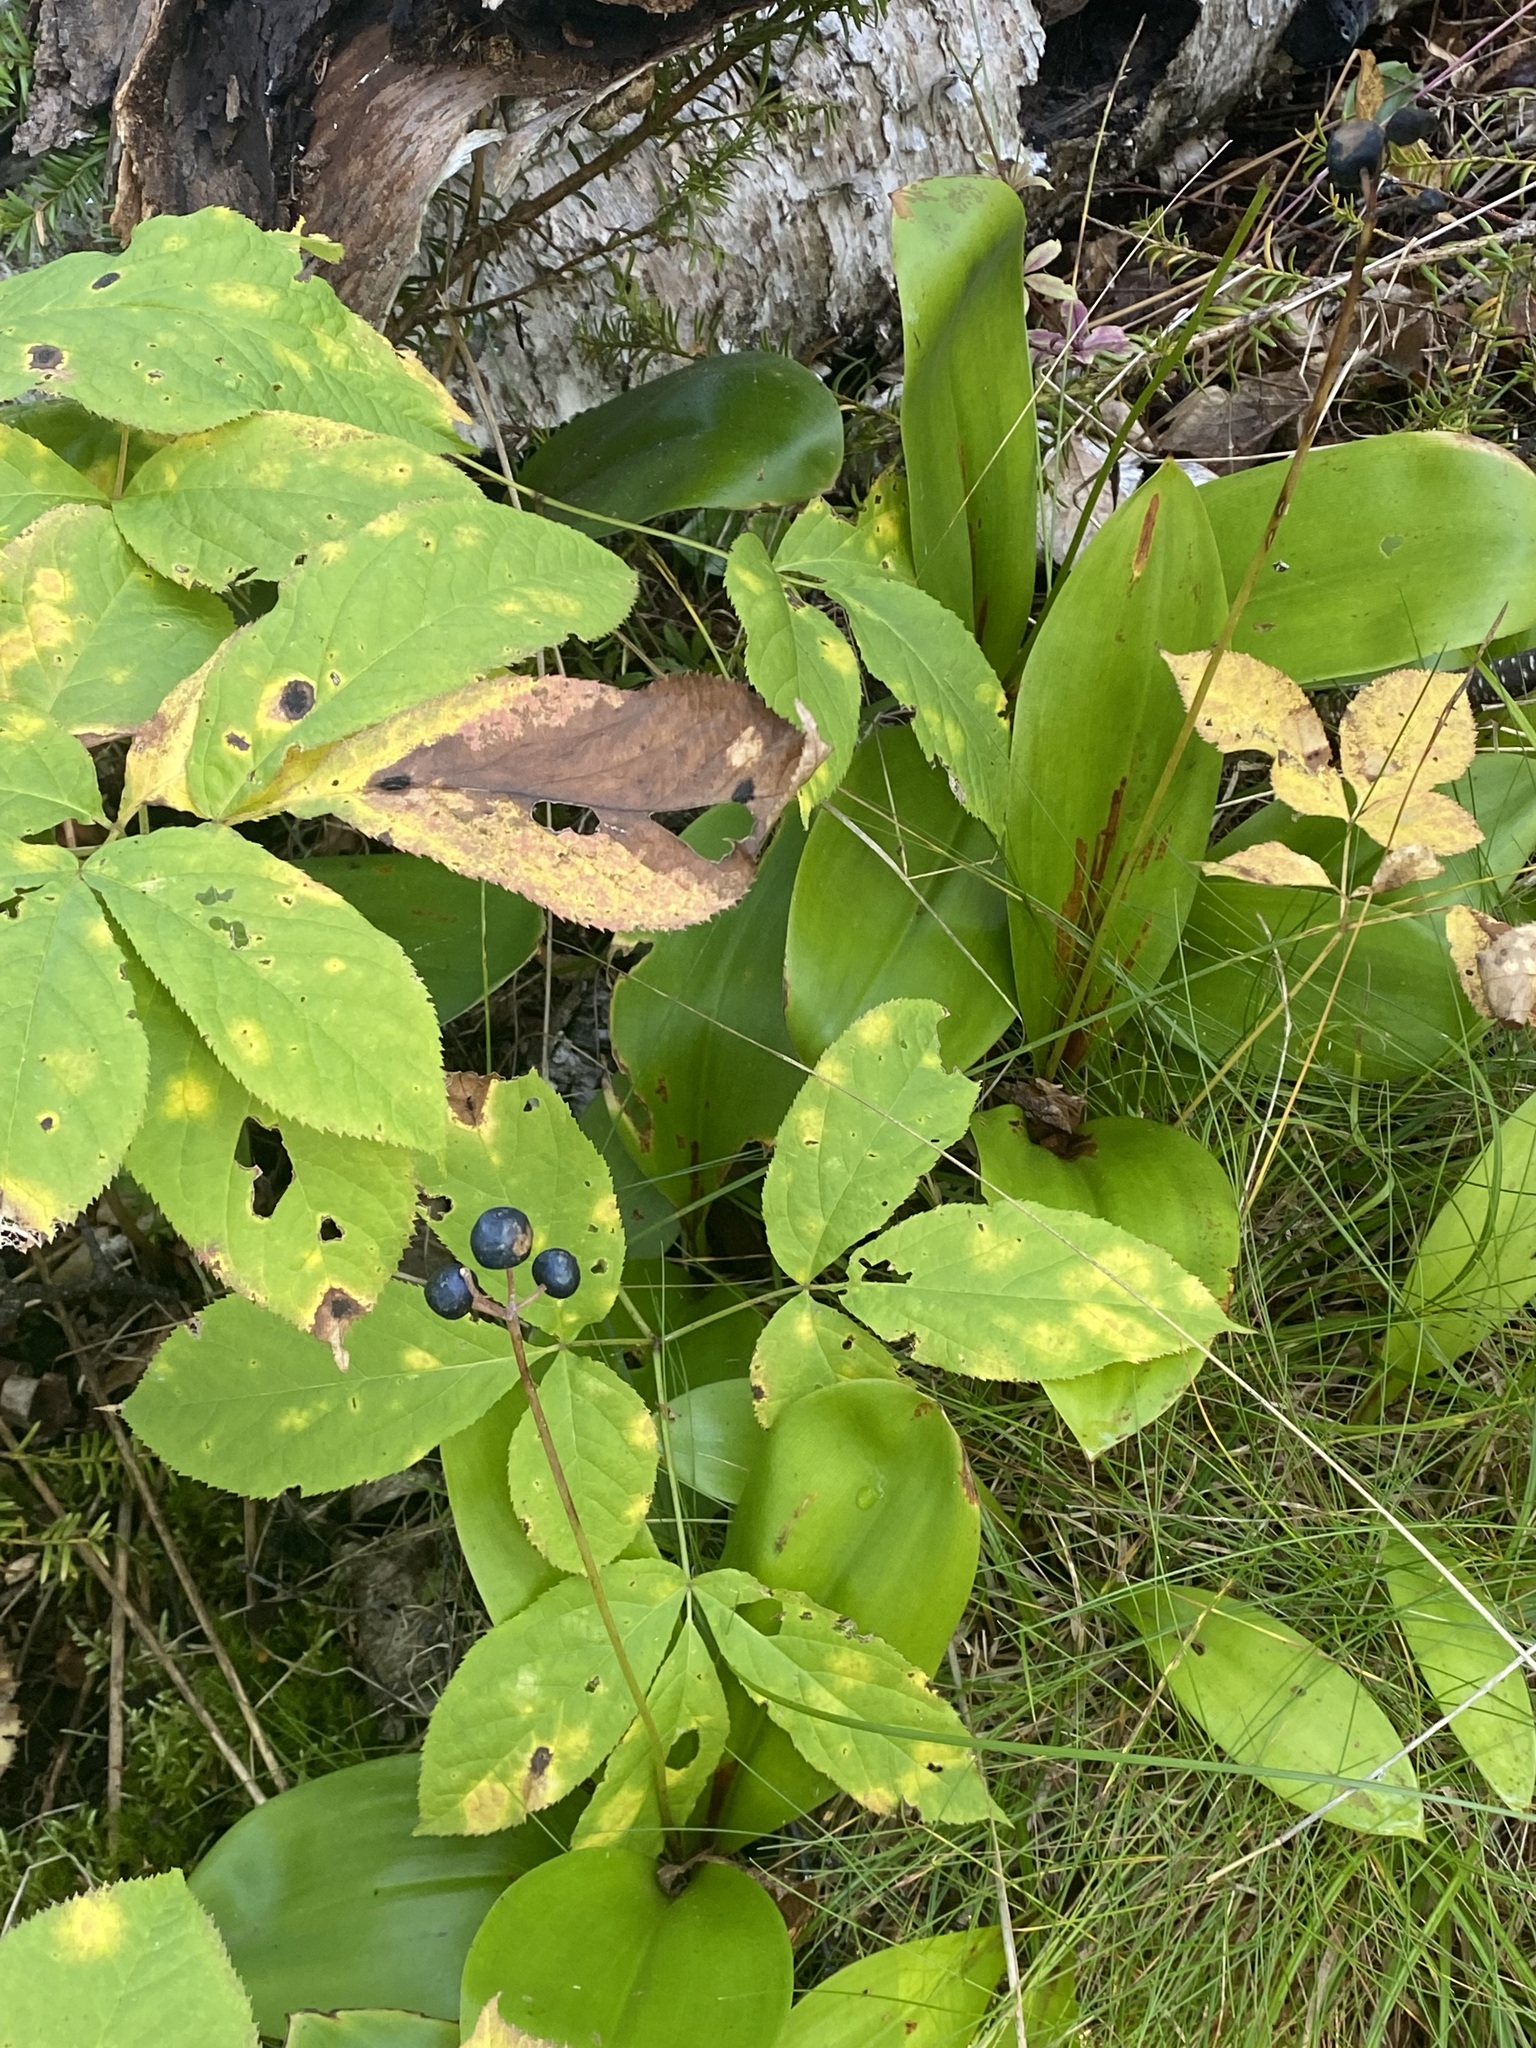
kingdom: Plantae
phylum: Tracheophyta
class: Liliopsida
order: Liliales
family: Liliaceae
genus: Clintonia
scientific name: Clintonia borealis
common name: Yellow clintonia
